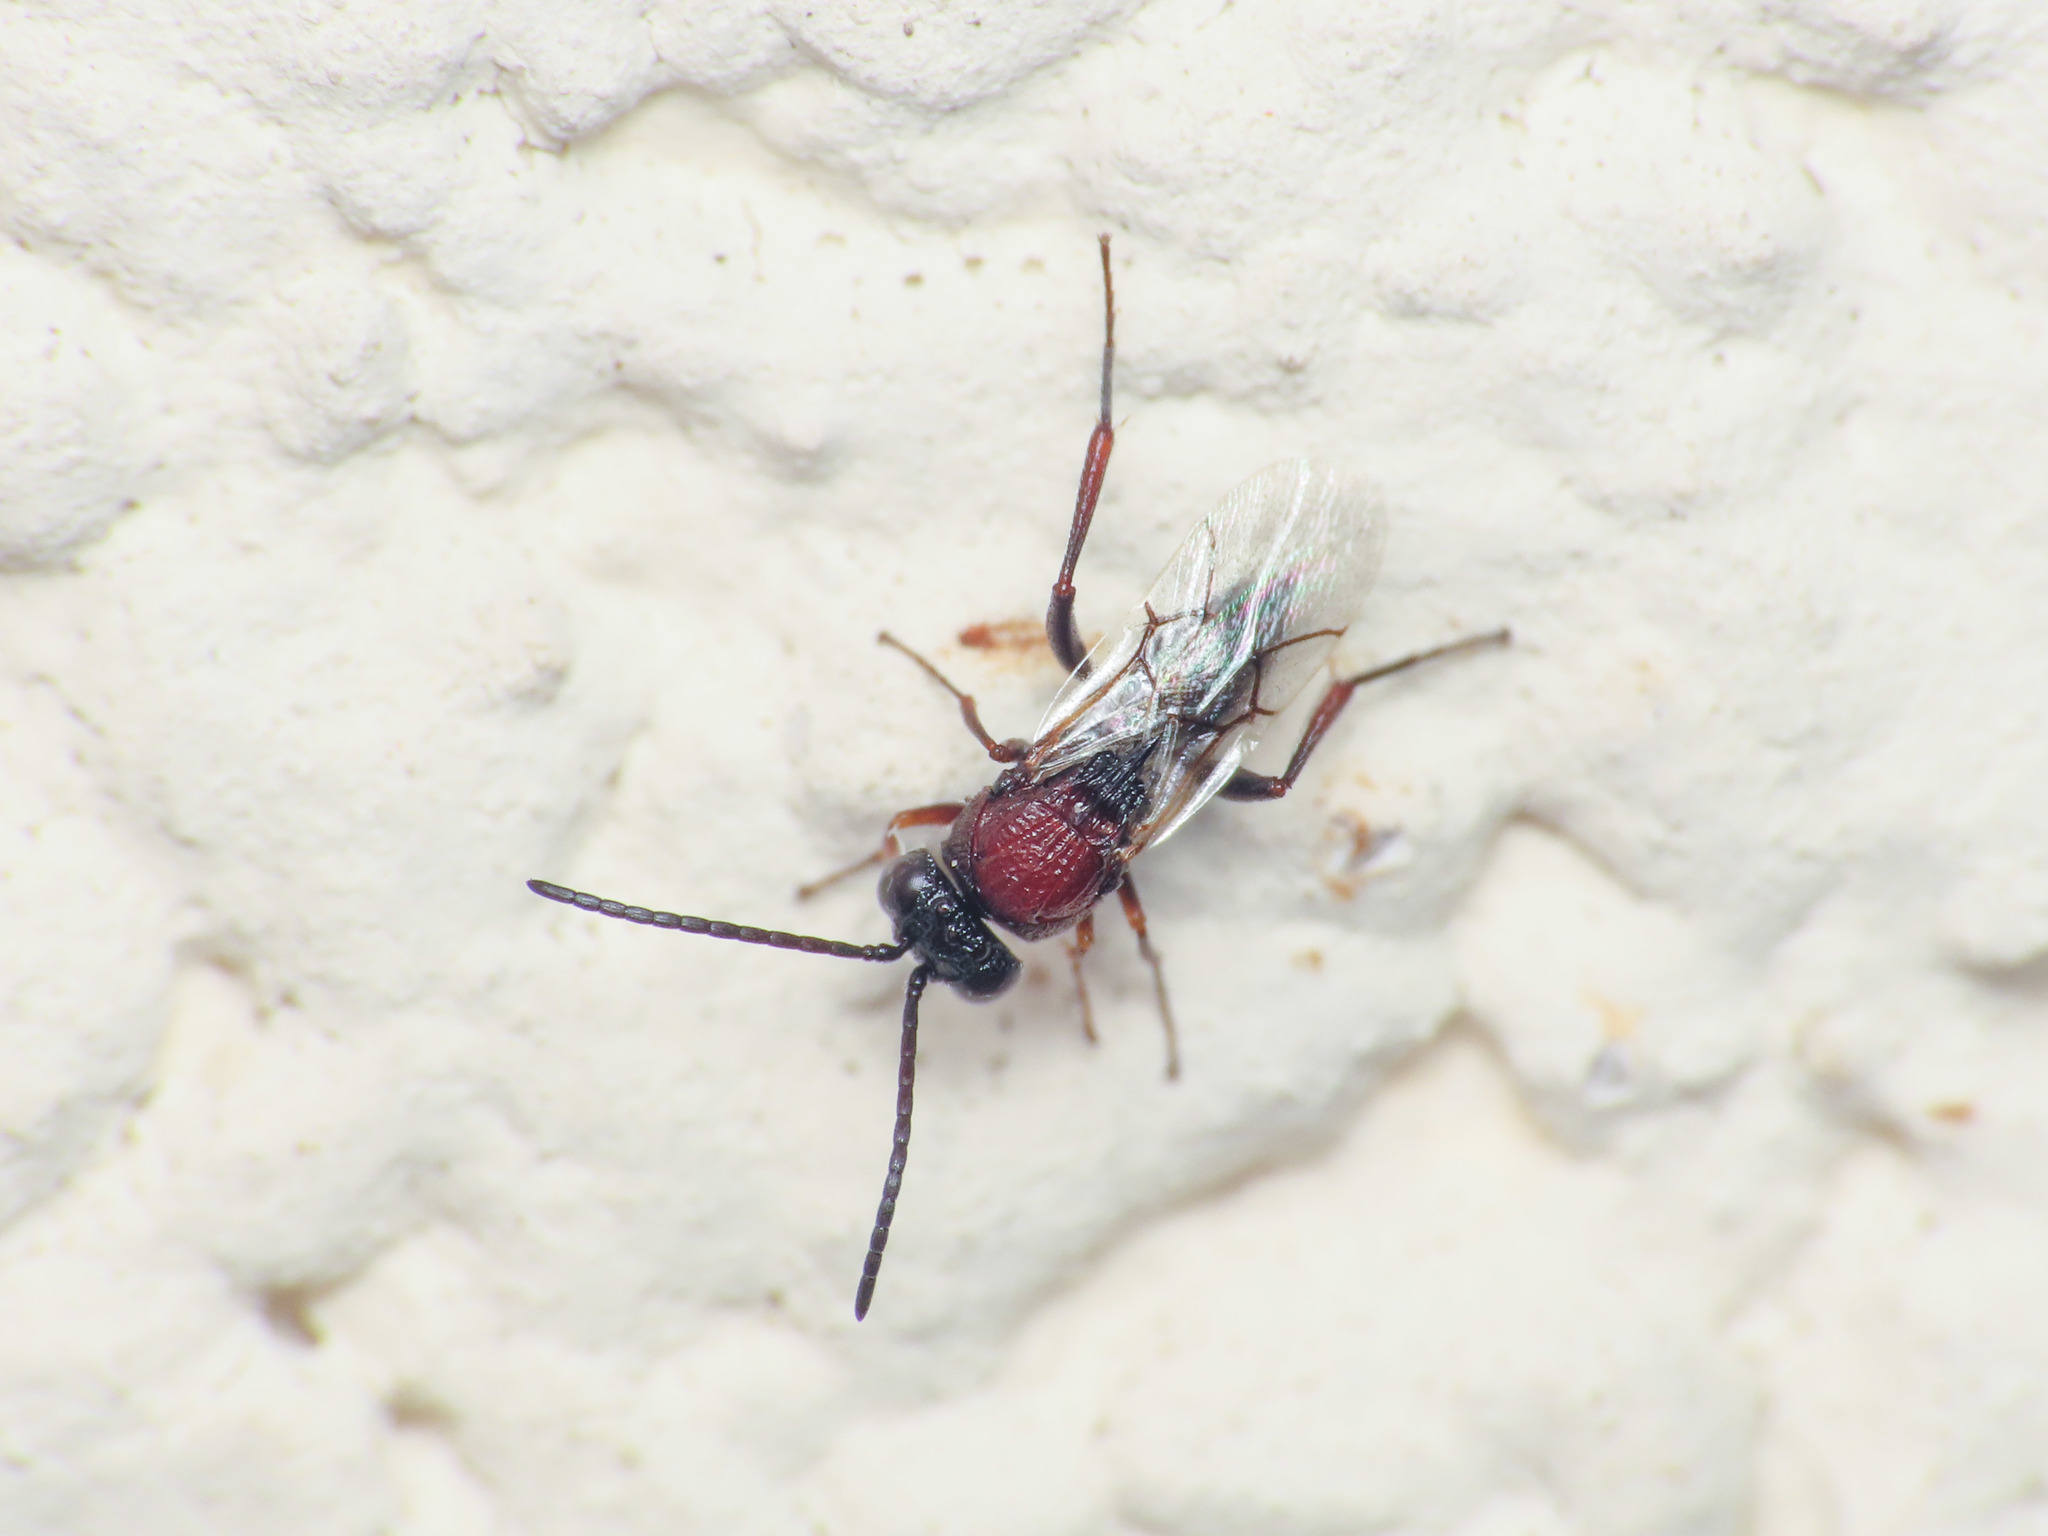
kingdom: Animalia
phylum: Arthropoda
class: Insecta
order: Hymenoptera
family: Figitidae
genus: Aspicera
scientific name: Aspicera scutellata
